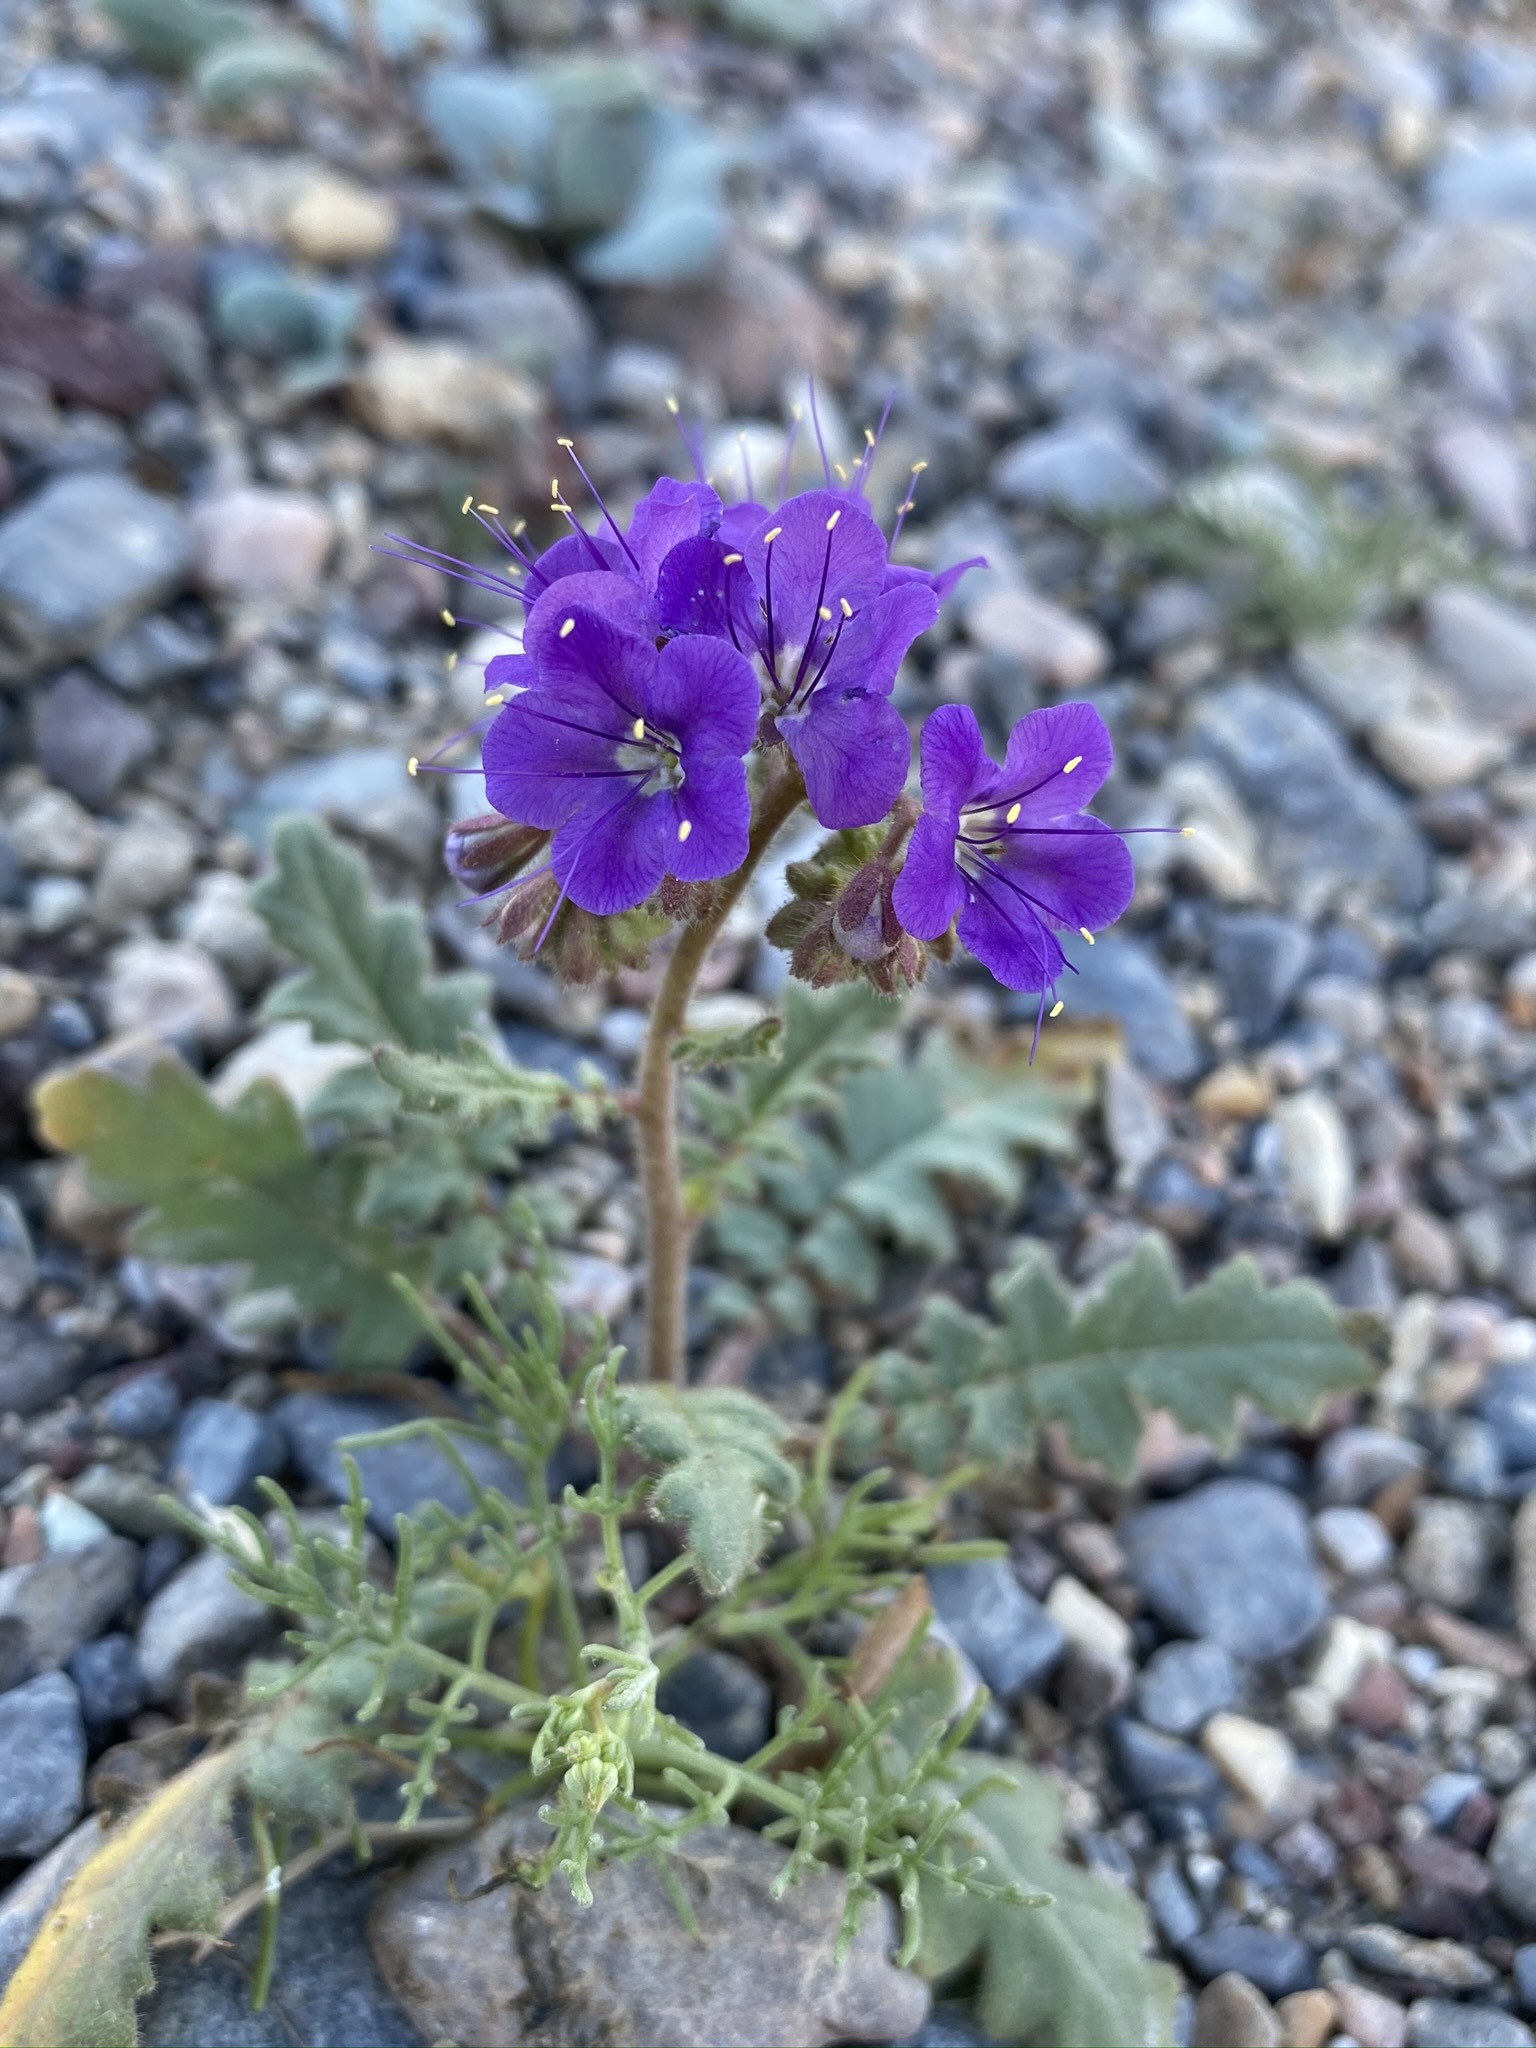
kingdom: Plantae
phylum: Tracheophyta
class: Magnoliopsida
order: Boraginales
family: Hydrophyllaceae
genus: Phacelia
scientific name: Phacelia crenulata
